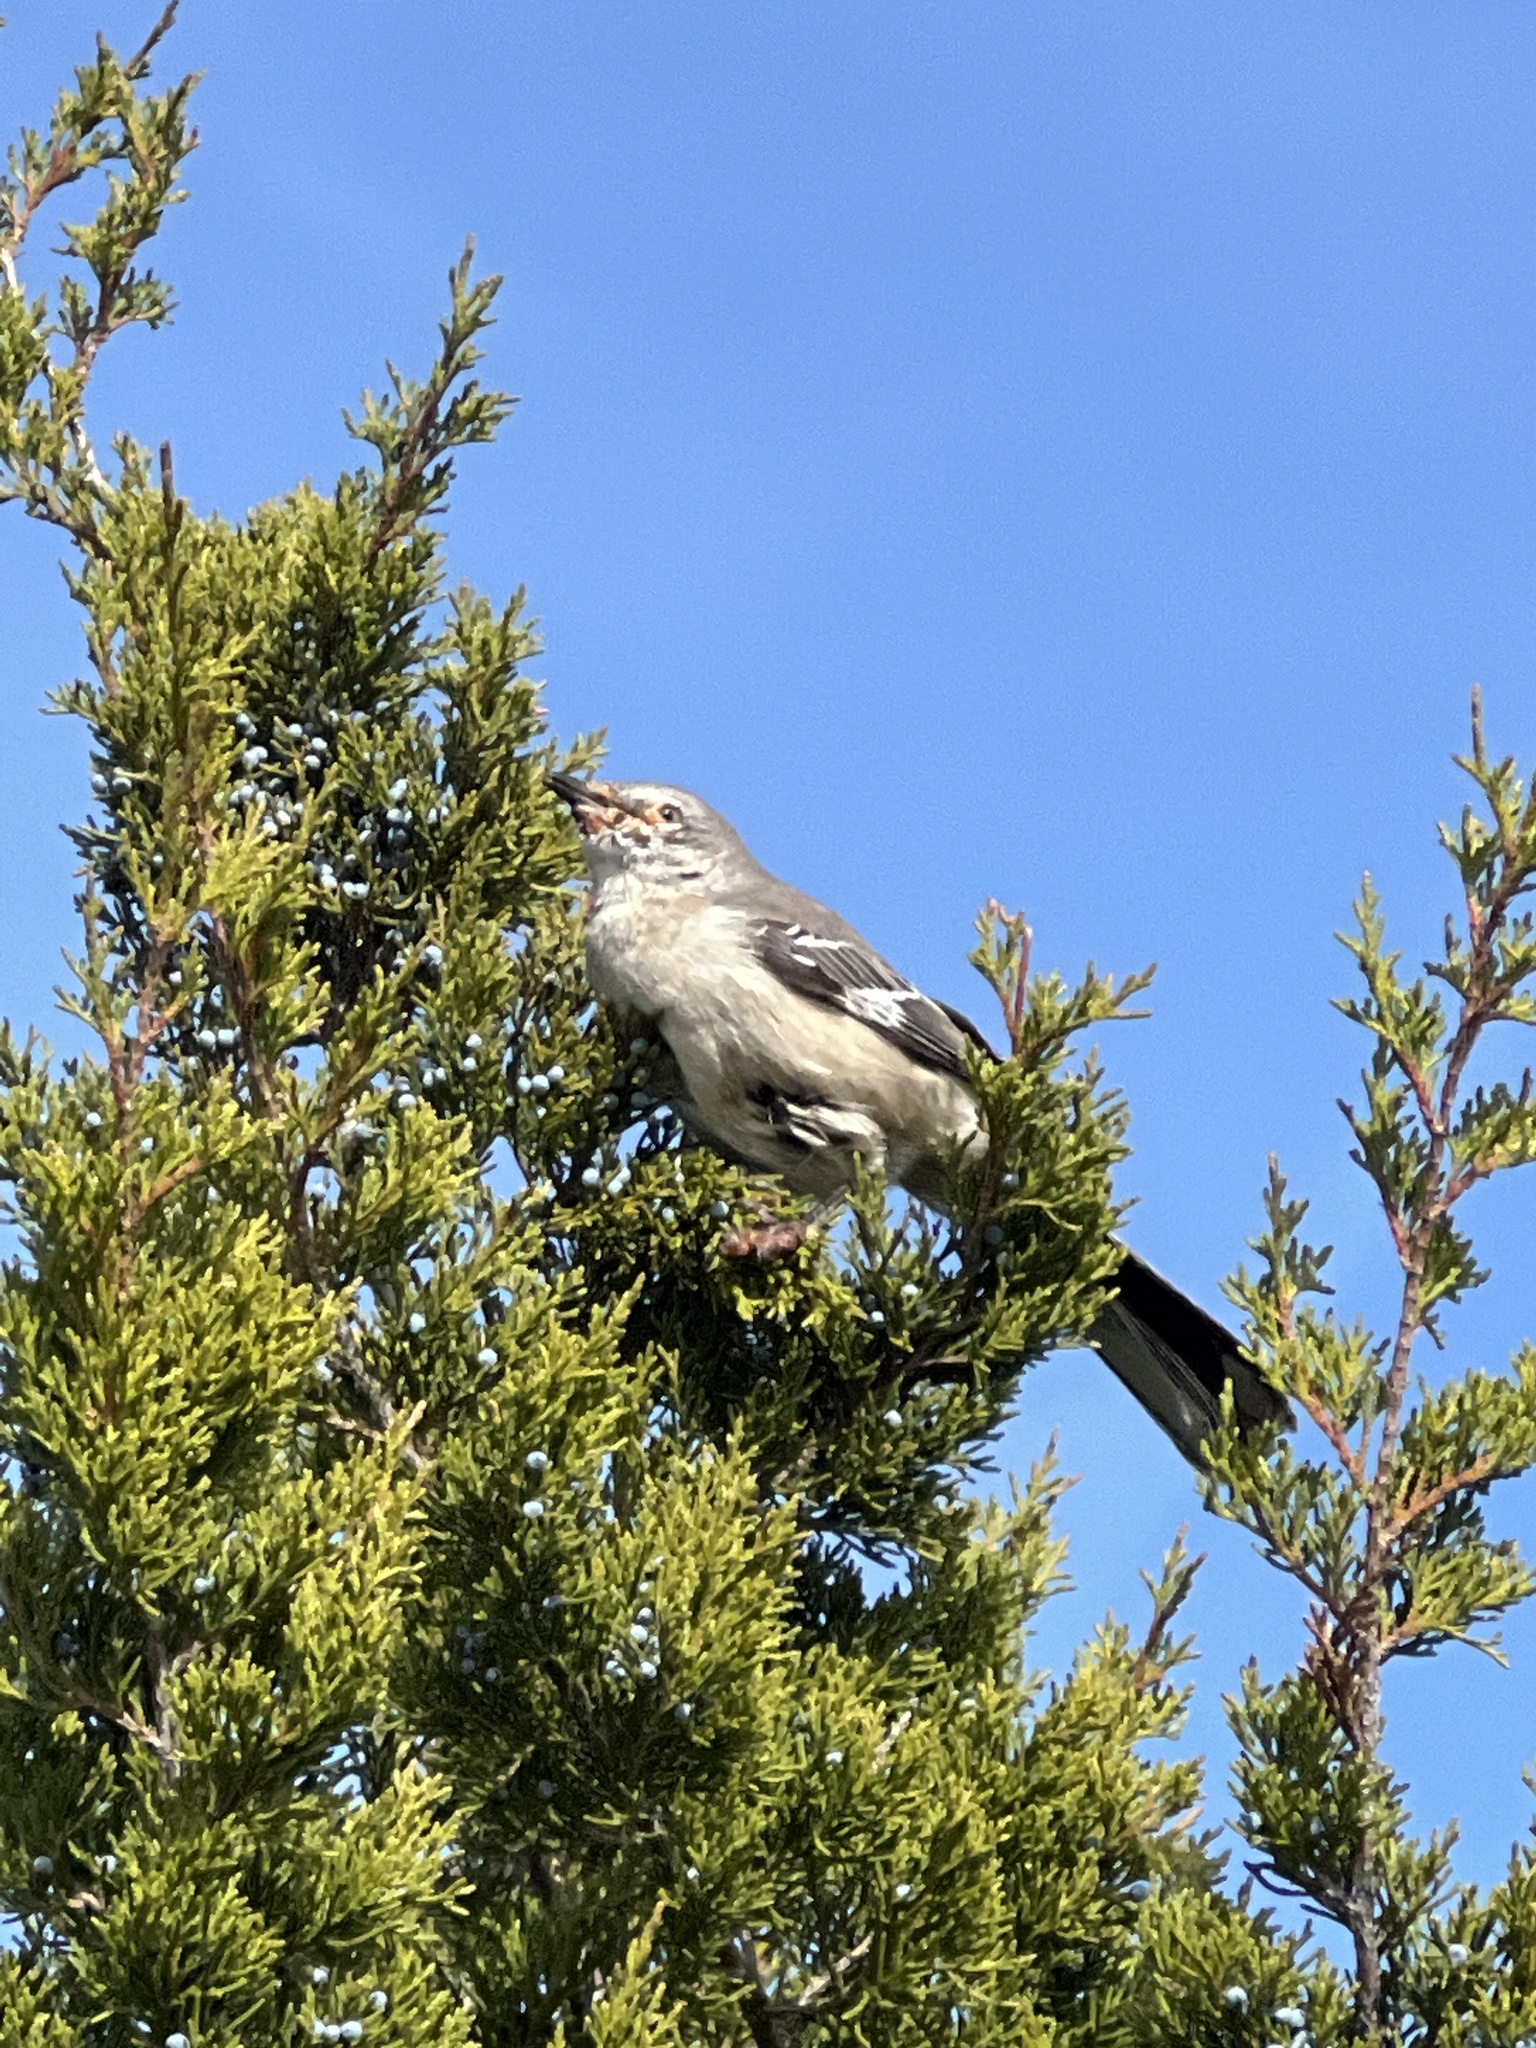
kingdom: Animalia
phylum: Chordata
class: Aves
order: Passeriformes
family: Mimidae
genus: Mimus
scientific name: Mimus polyglottos
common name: Northern mockingbird
